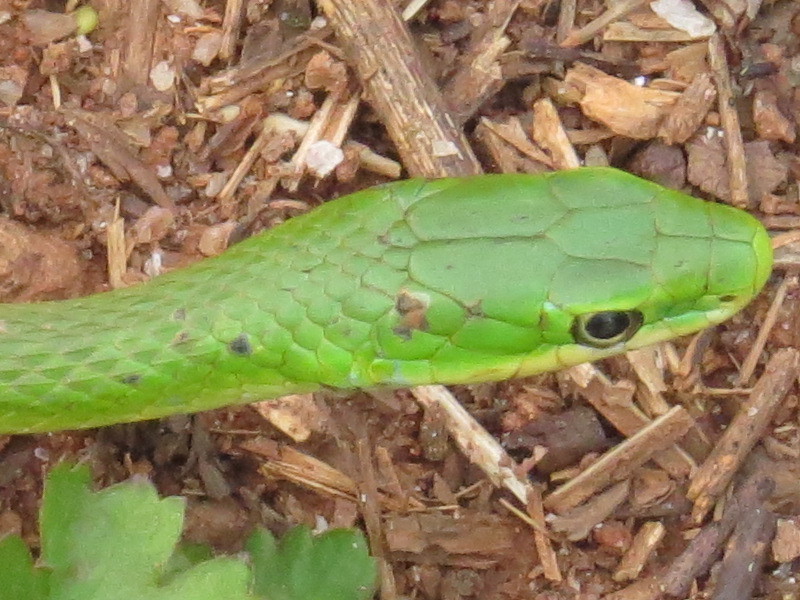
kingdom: Animalia
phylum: Chordata
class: Squamata
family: Colubridae
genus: Opheodrys
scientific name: Opheodrys aestivus
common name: Rough greensnake
